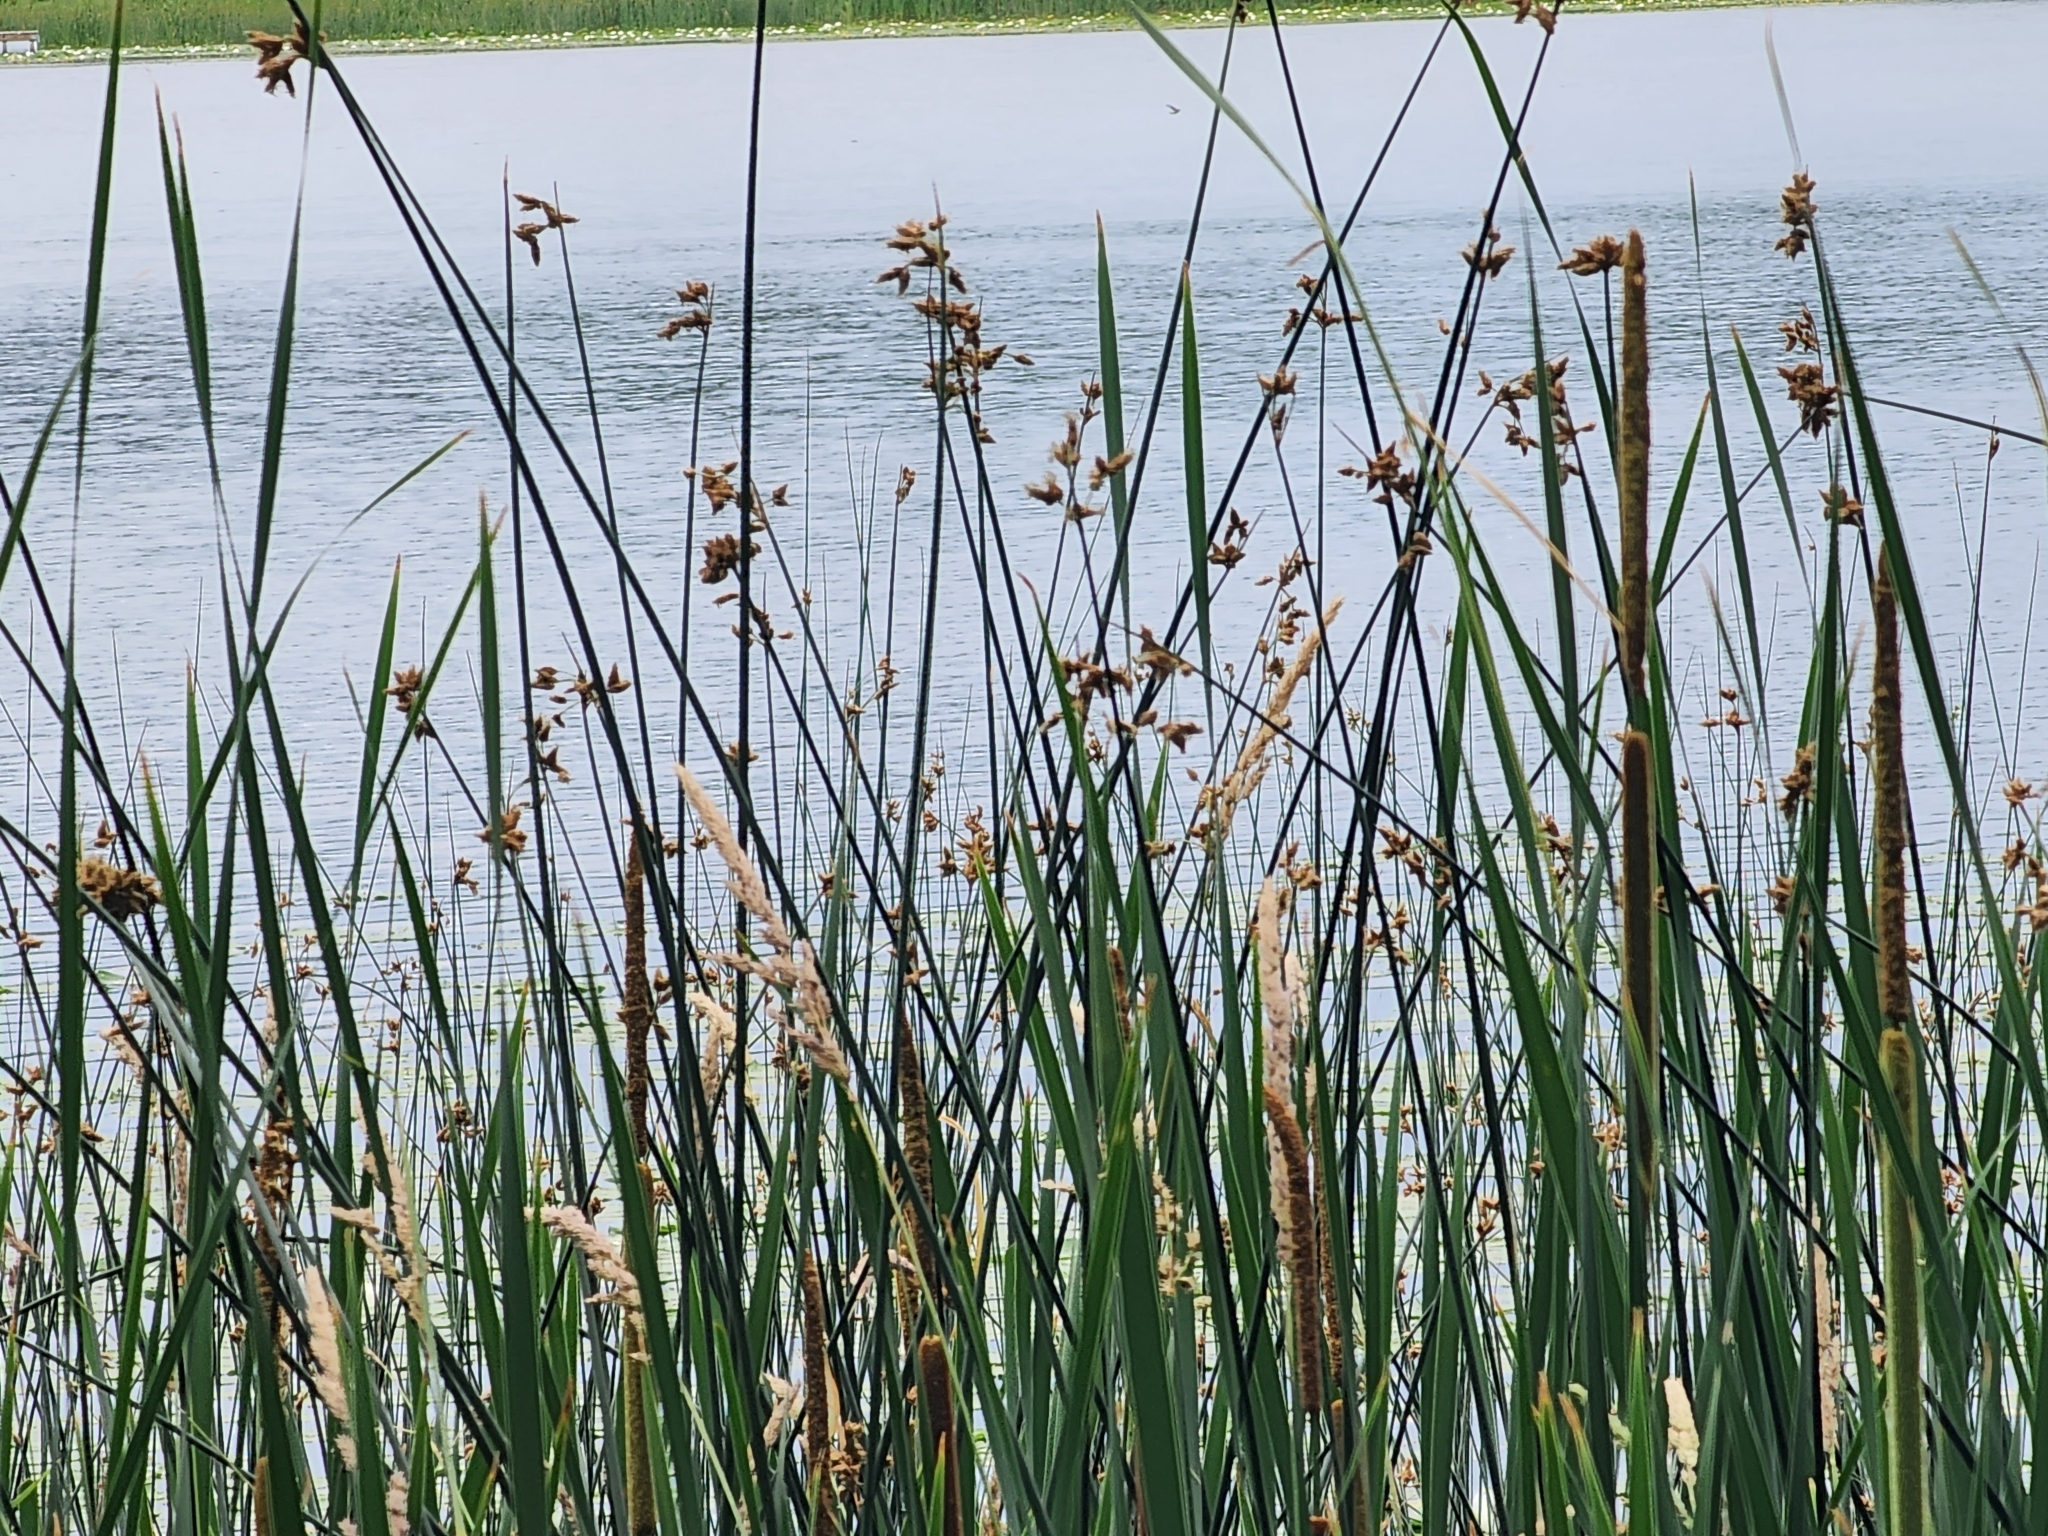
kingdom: Plantae
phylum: Tracheophyta
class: Liliopsida
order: Poales
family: Cyperaceae
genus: Schoenoplectus
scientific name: Schoenoplectus acutus
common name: Hardstem bulrush
